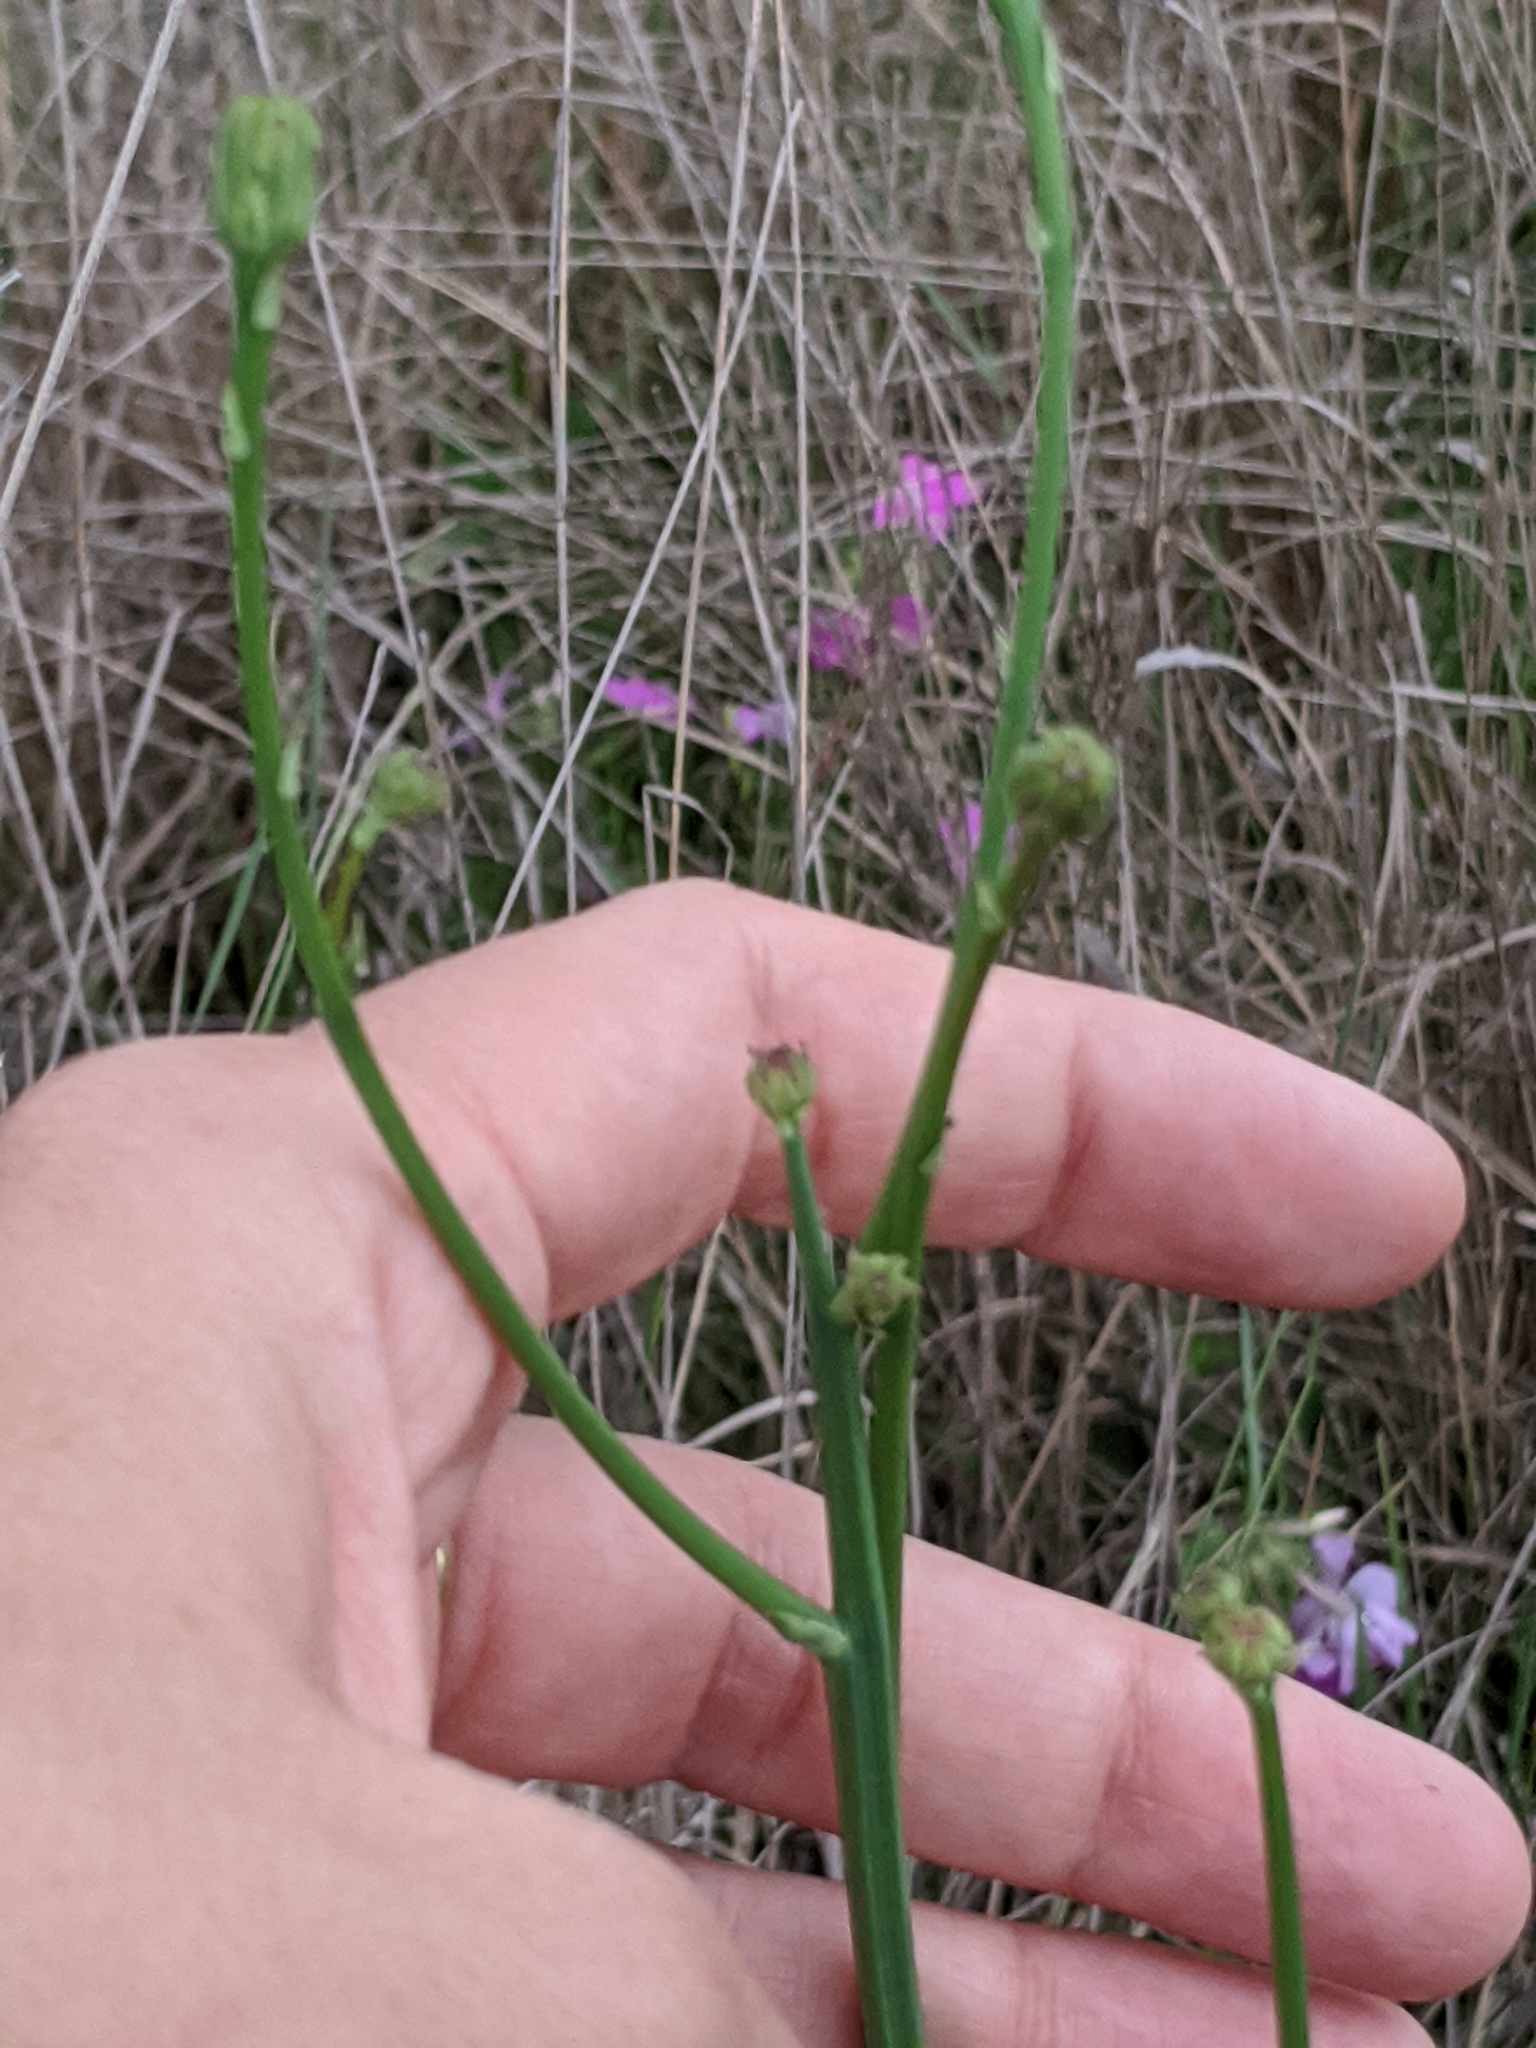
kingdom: Plantae
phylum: Tracheophyta
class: Magnoliopsida
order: Asterales
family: Asteraceae
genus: Hypochaeris
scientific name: Hypochaeris glabra
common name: Smooth catsear
